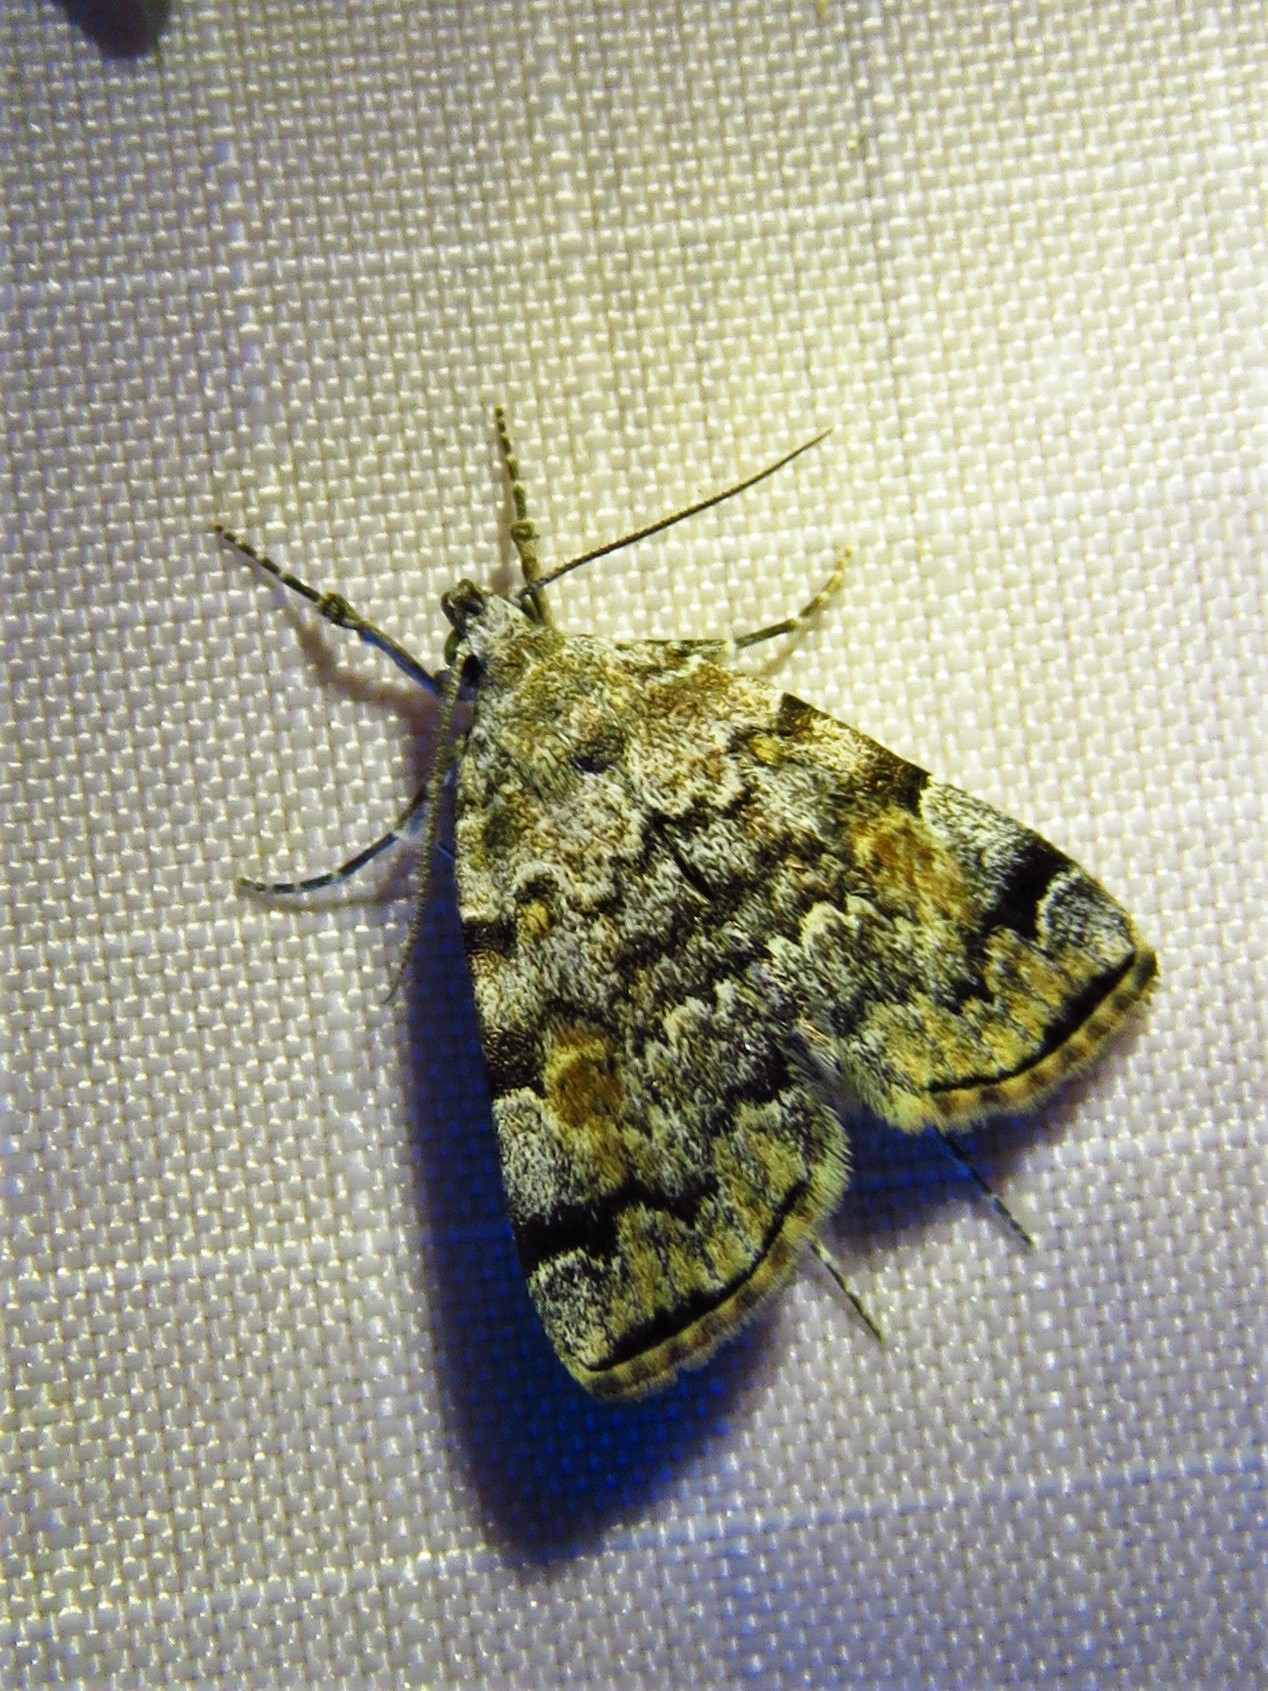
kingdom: Animalia
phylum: Arthropoda
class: Insecta
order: Lepidoptera
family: Erebidae
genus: Idia
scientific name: Idia americalis
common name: American idia moth
